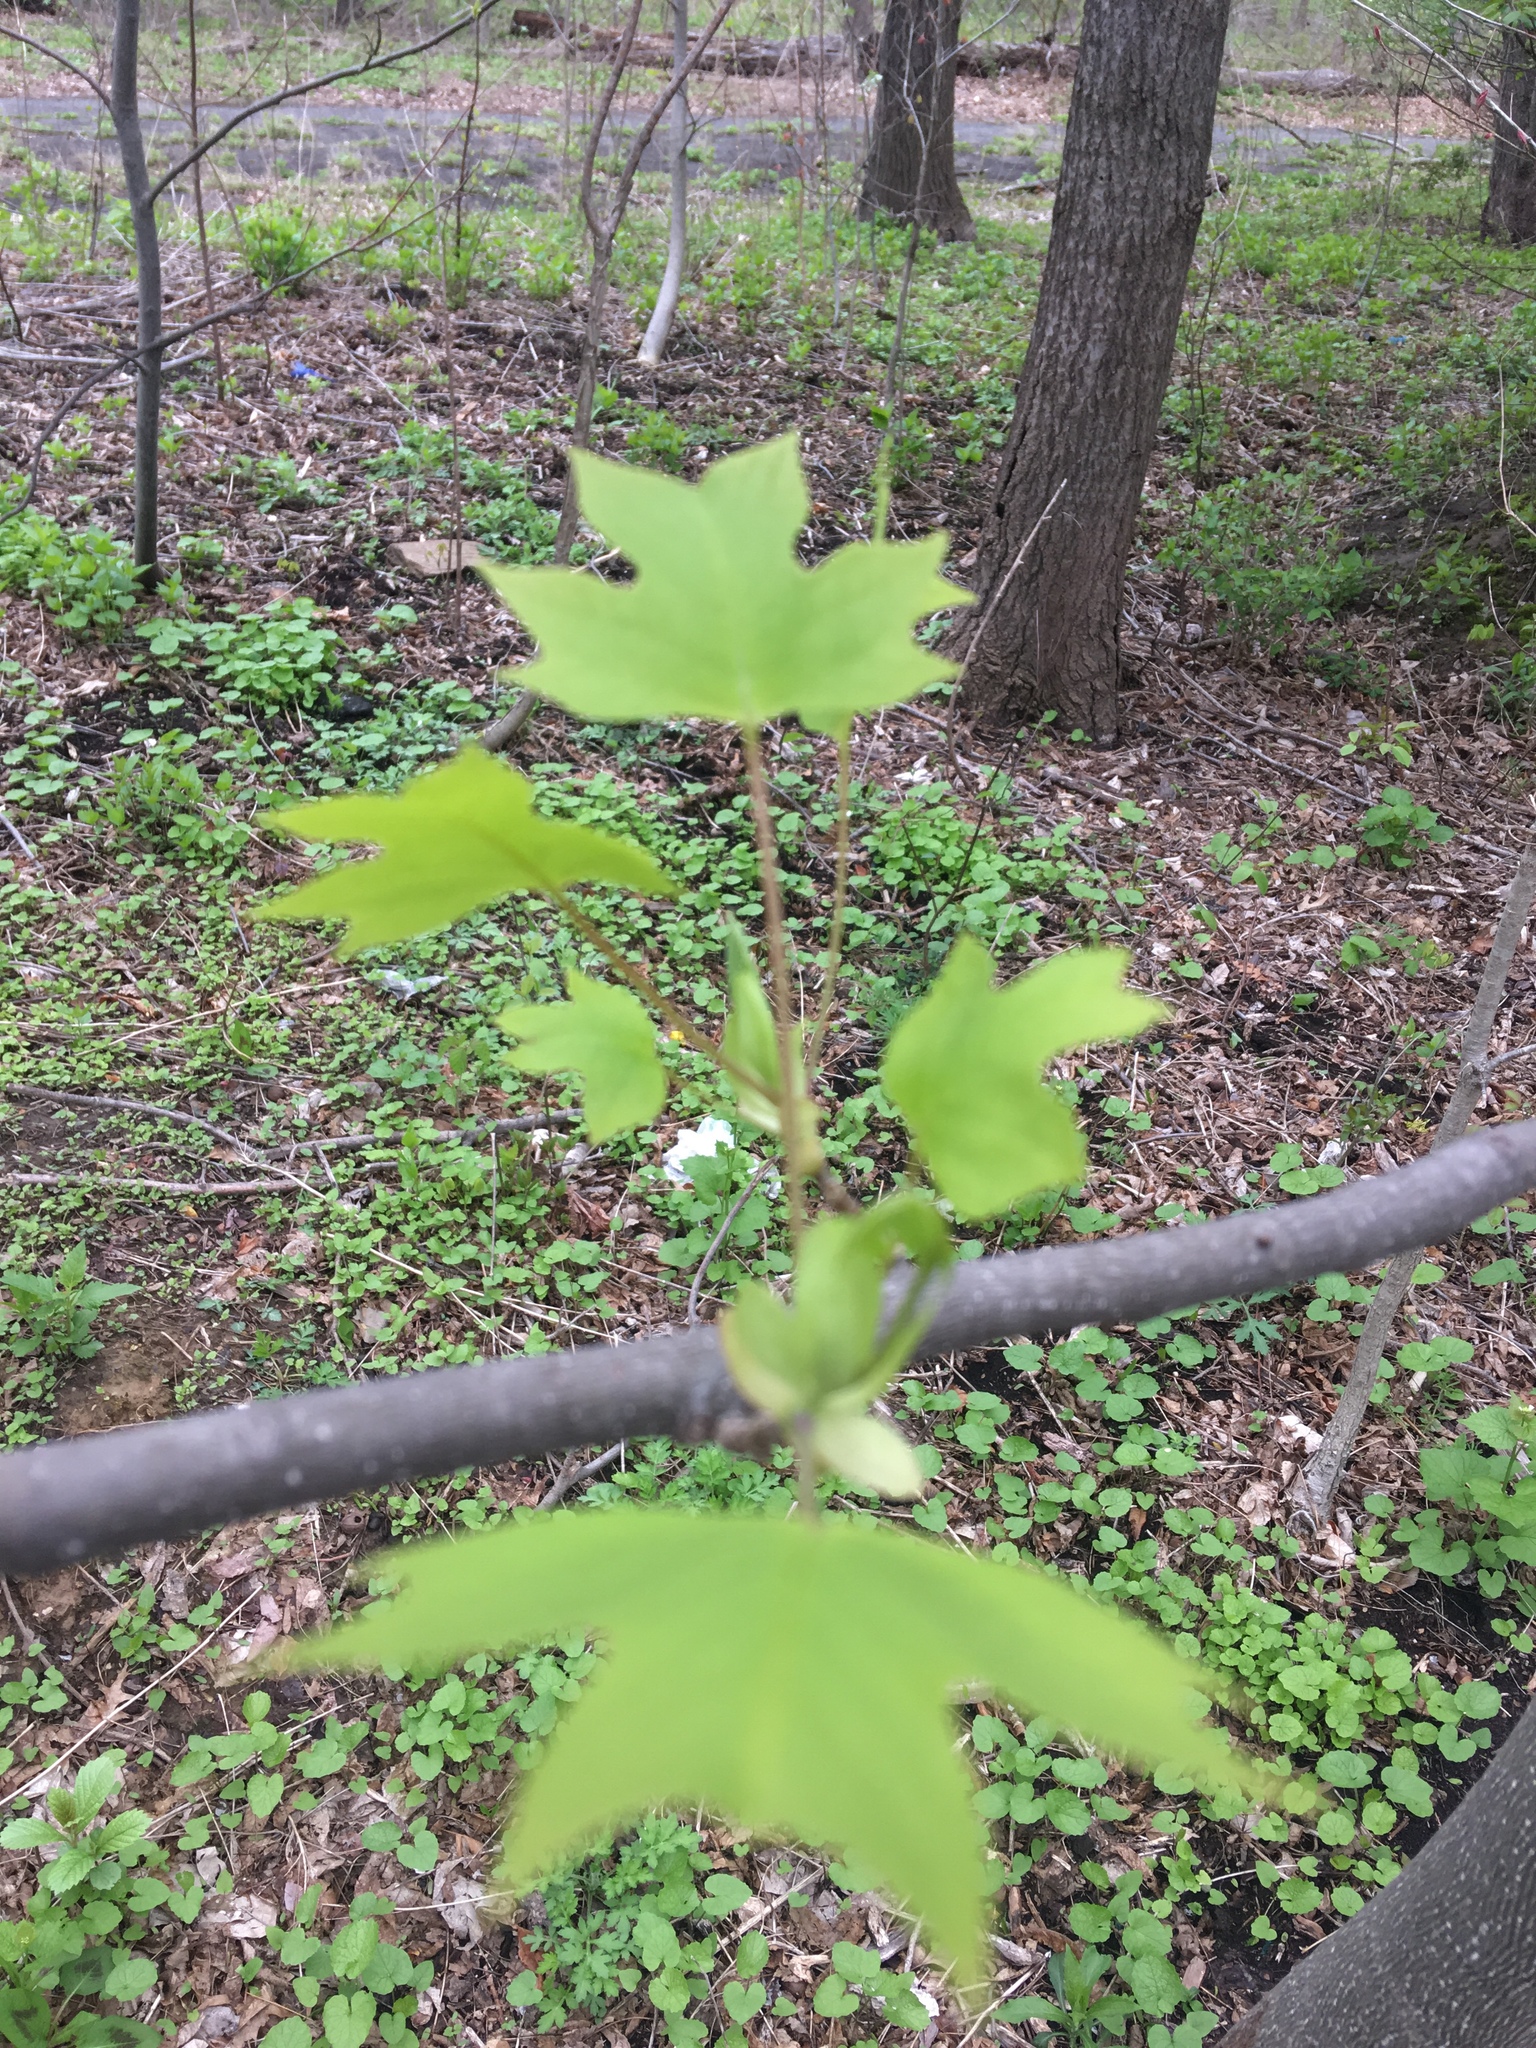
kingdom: Plantae
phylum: Tracheophyta
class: Magnoliopsida
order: Magnoliales
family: Magnoliaceae
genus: Liriodendron
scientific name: Liriodendron tulipifera
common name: Tulip tree
